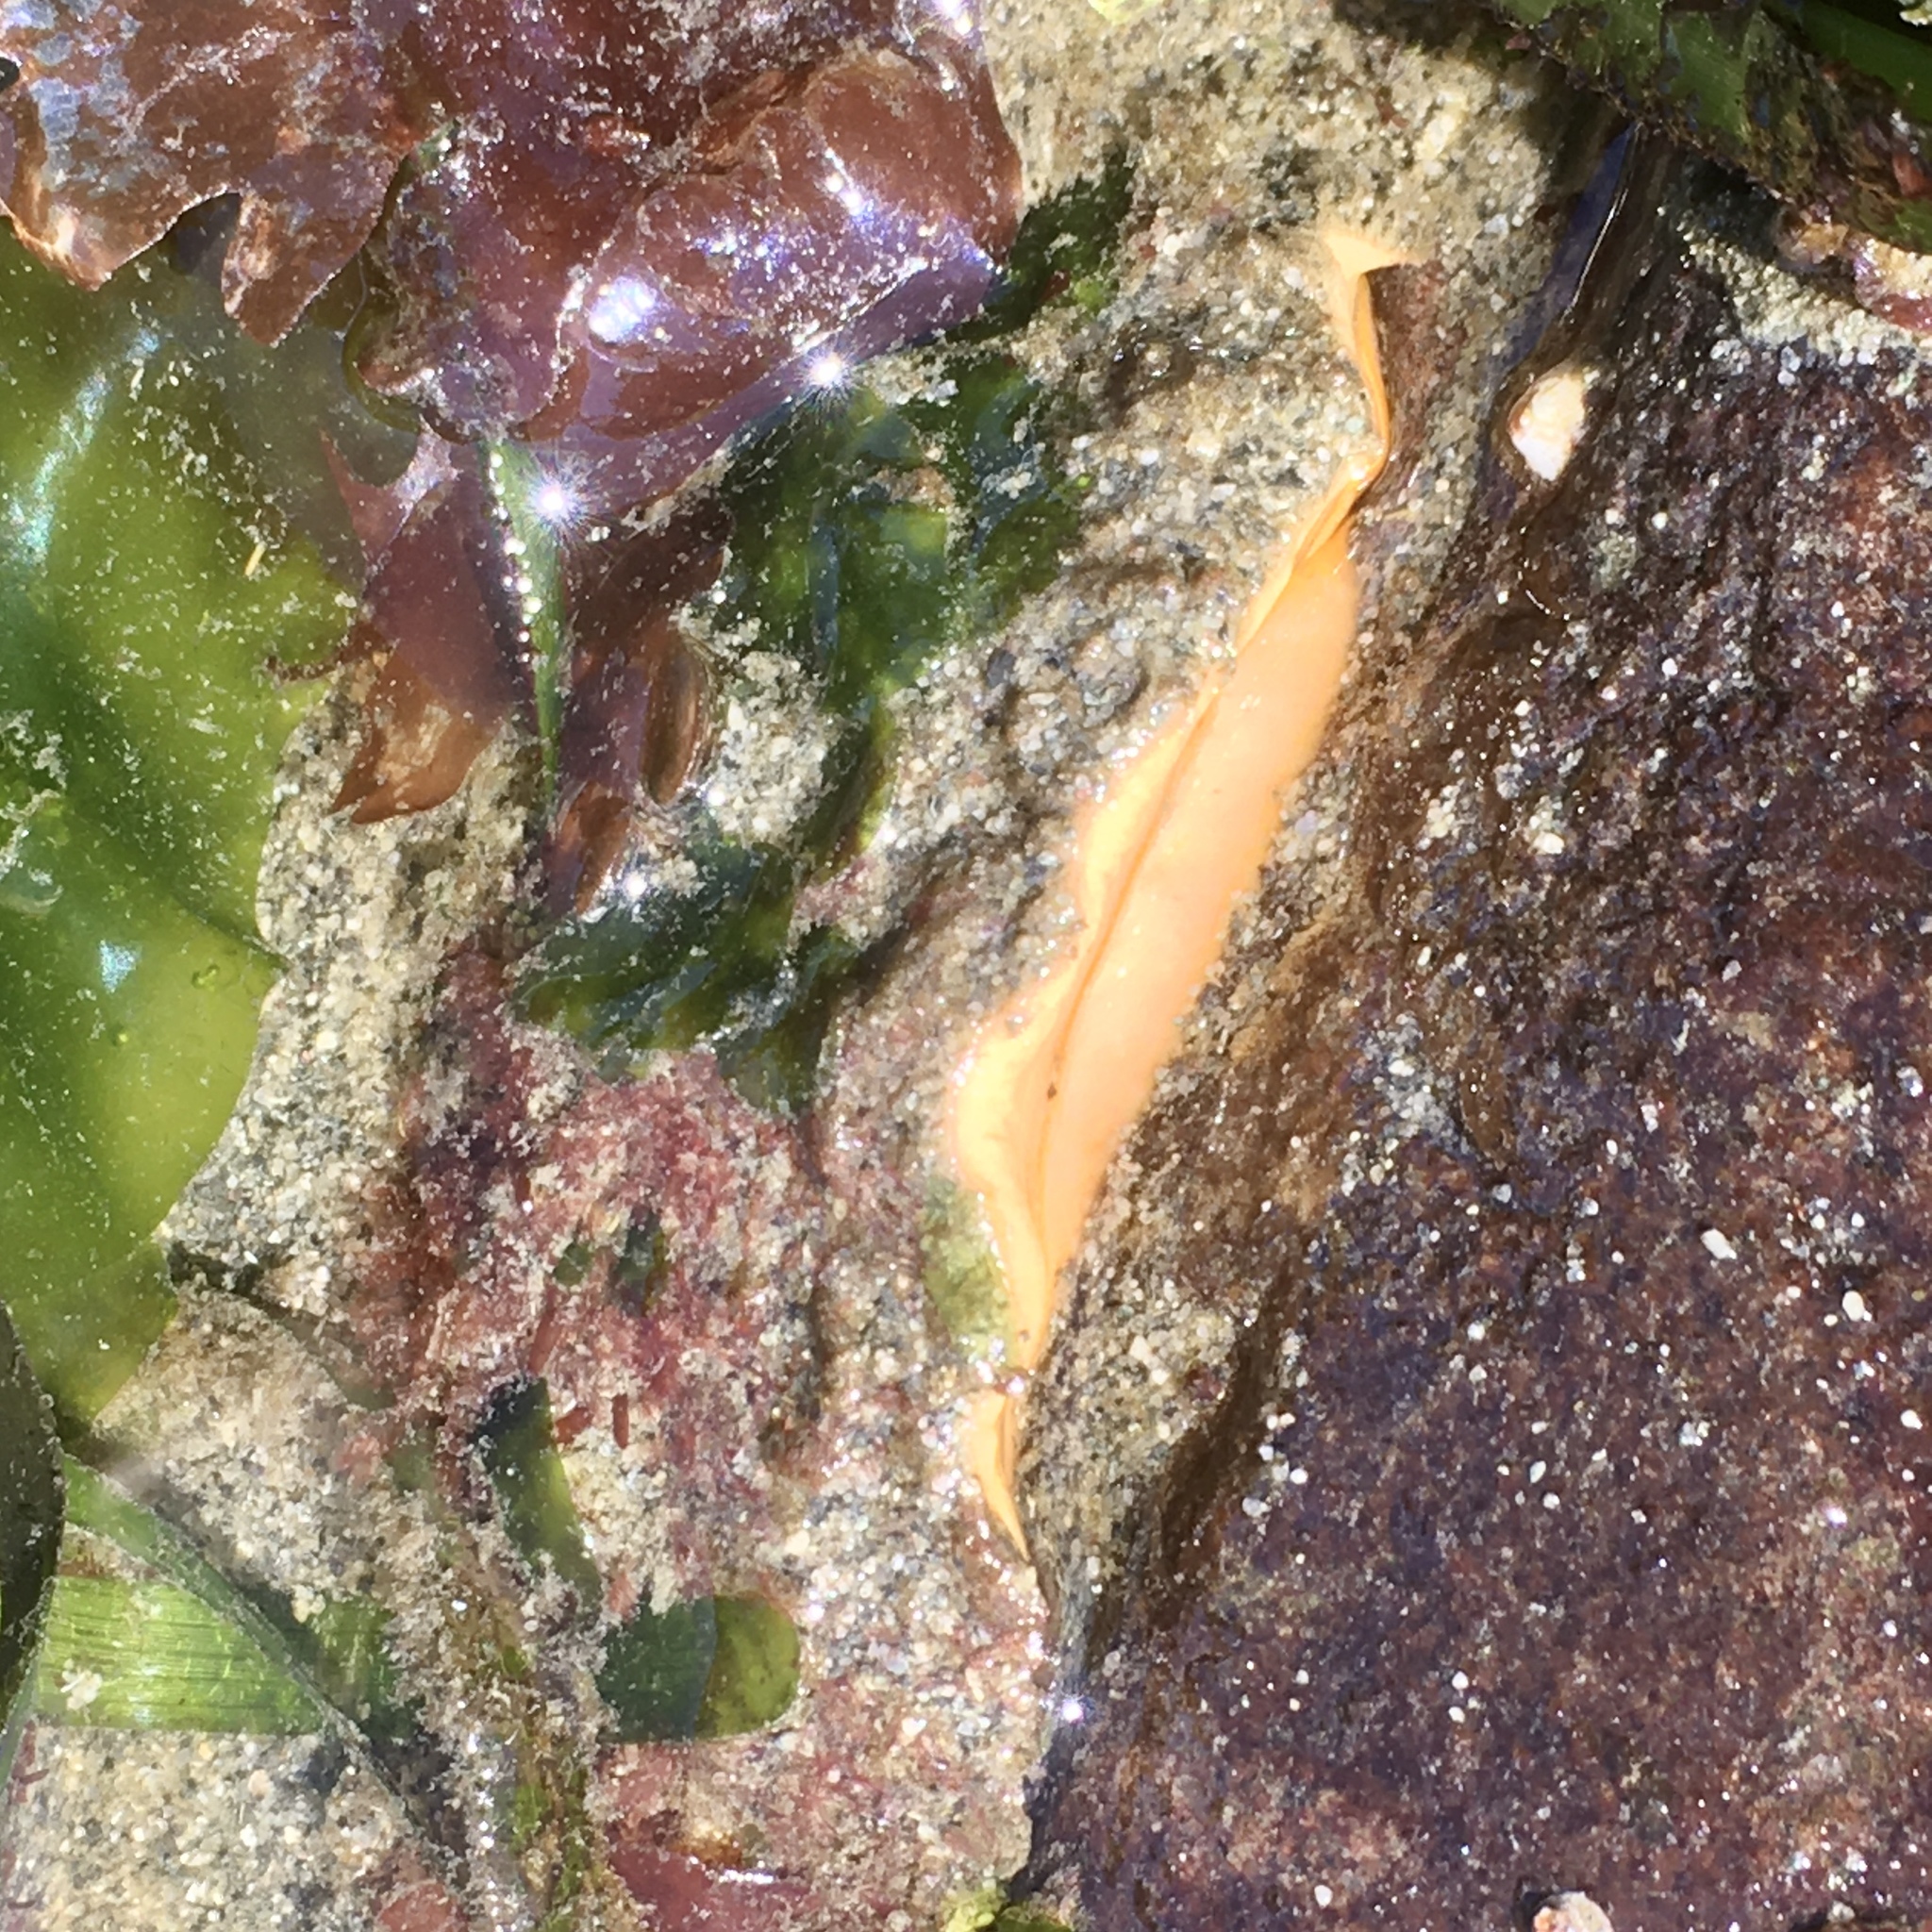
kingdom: Animalia
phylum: Mollusca
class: Polyplacophora
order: Chitonida
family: Acanthochitonidae
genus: Cryptochiton
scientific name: Cryptochiton stelleri
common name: Giant pacific chiton
